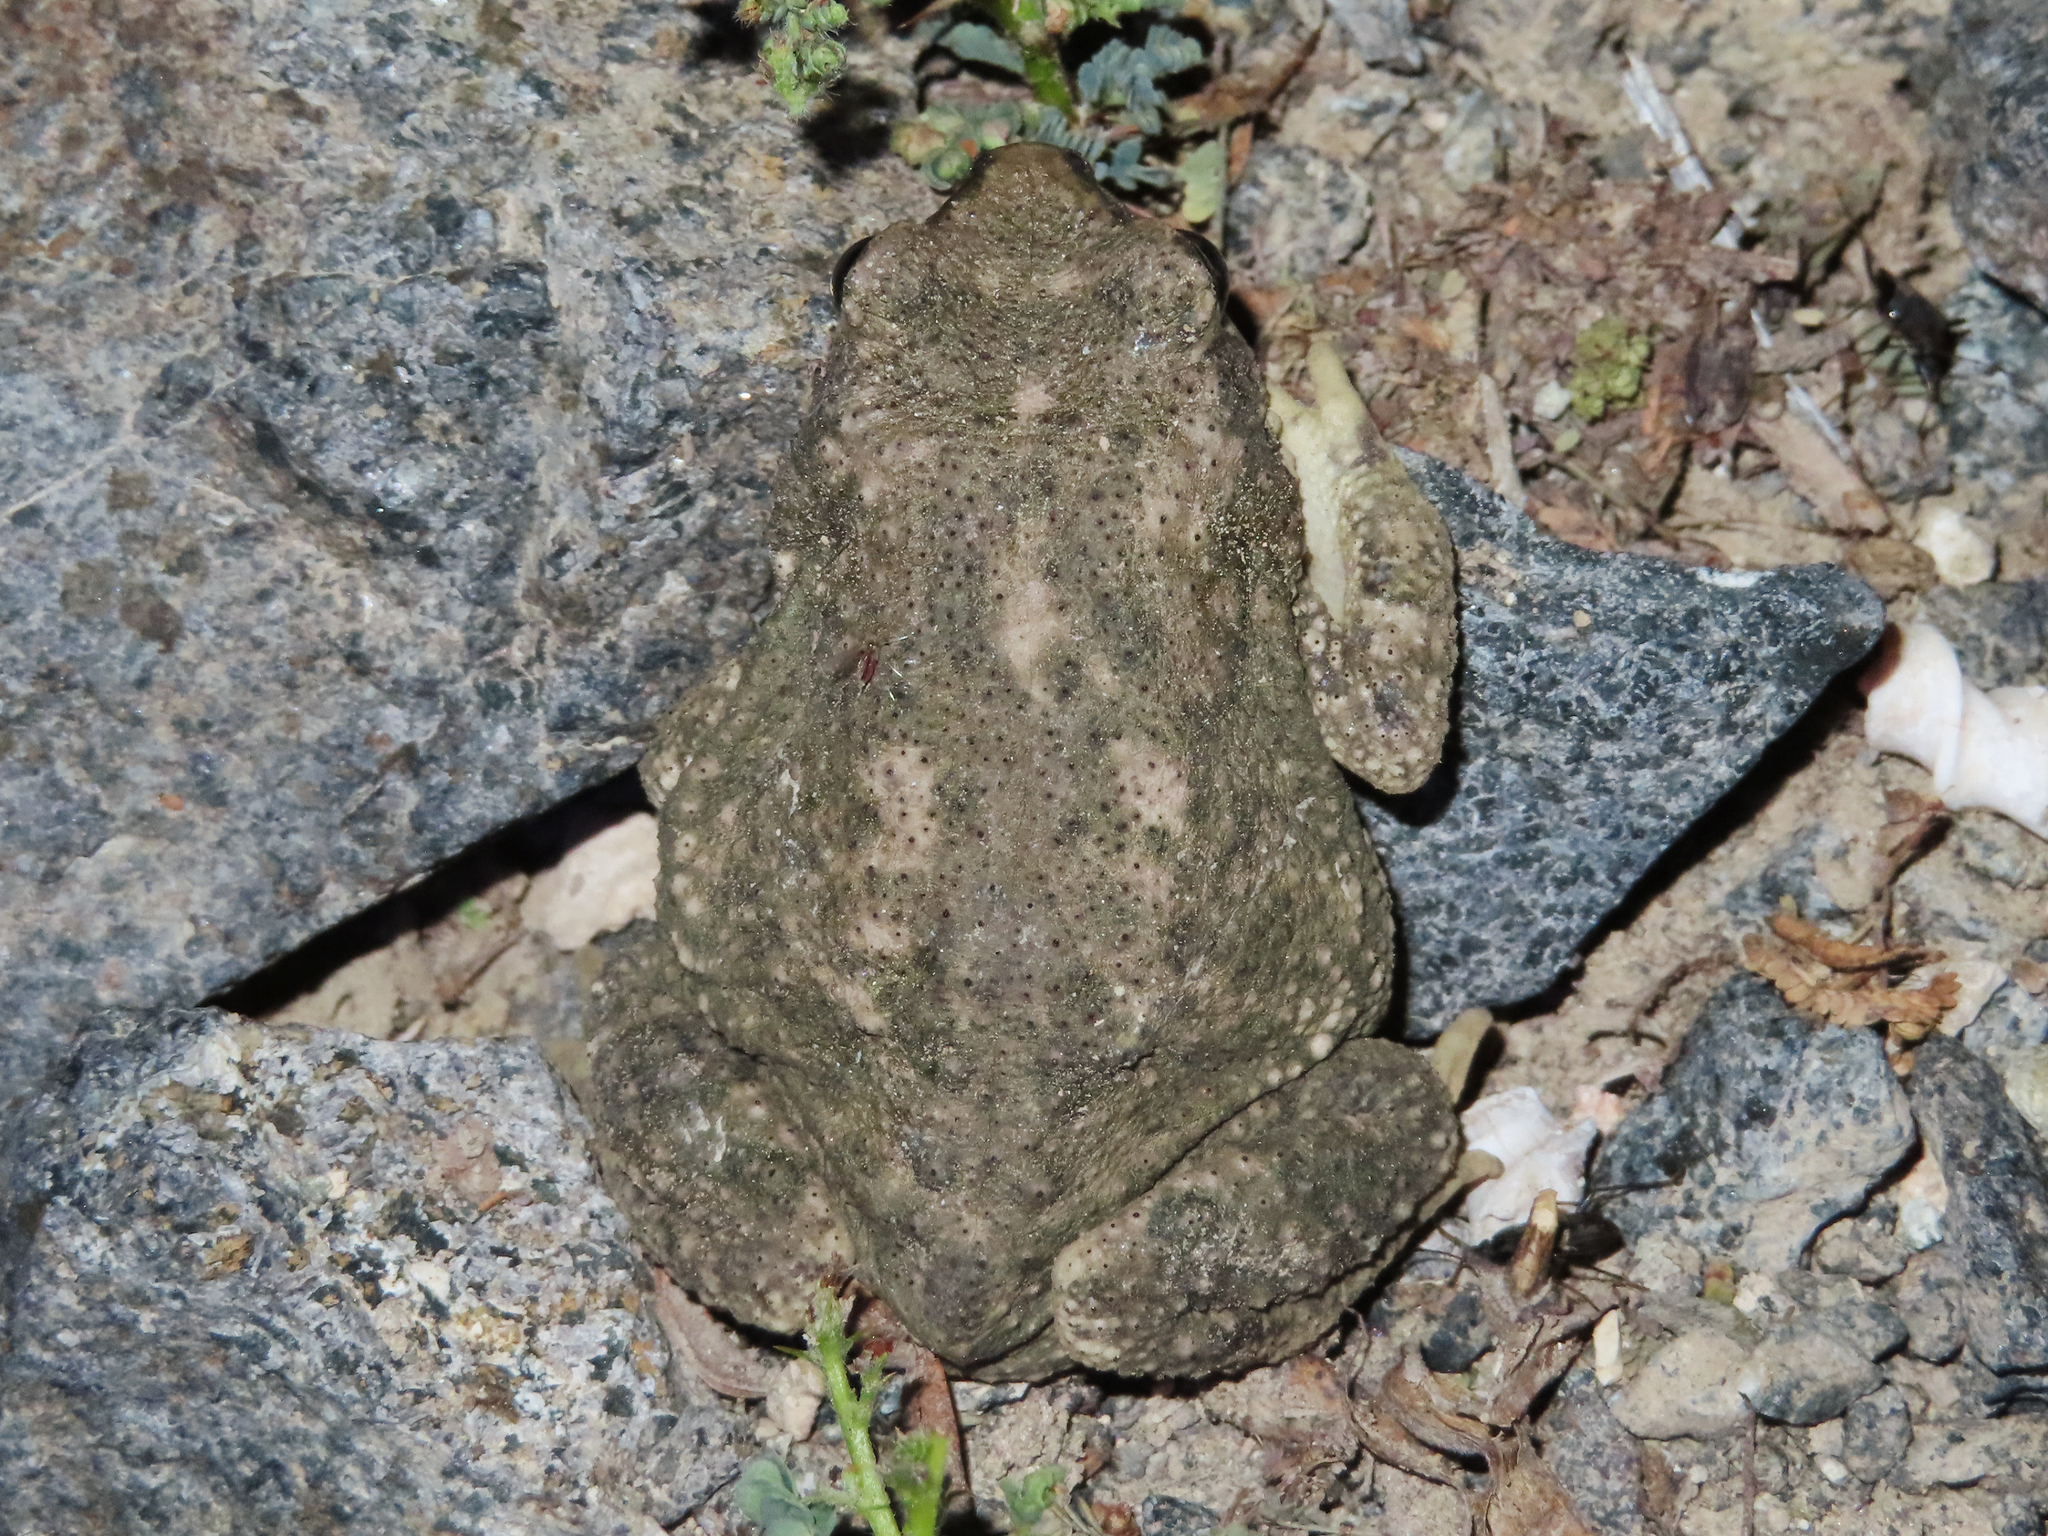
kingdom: Animalia
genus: Firouzophrynus
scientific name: Firouzophrynus
